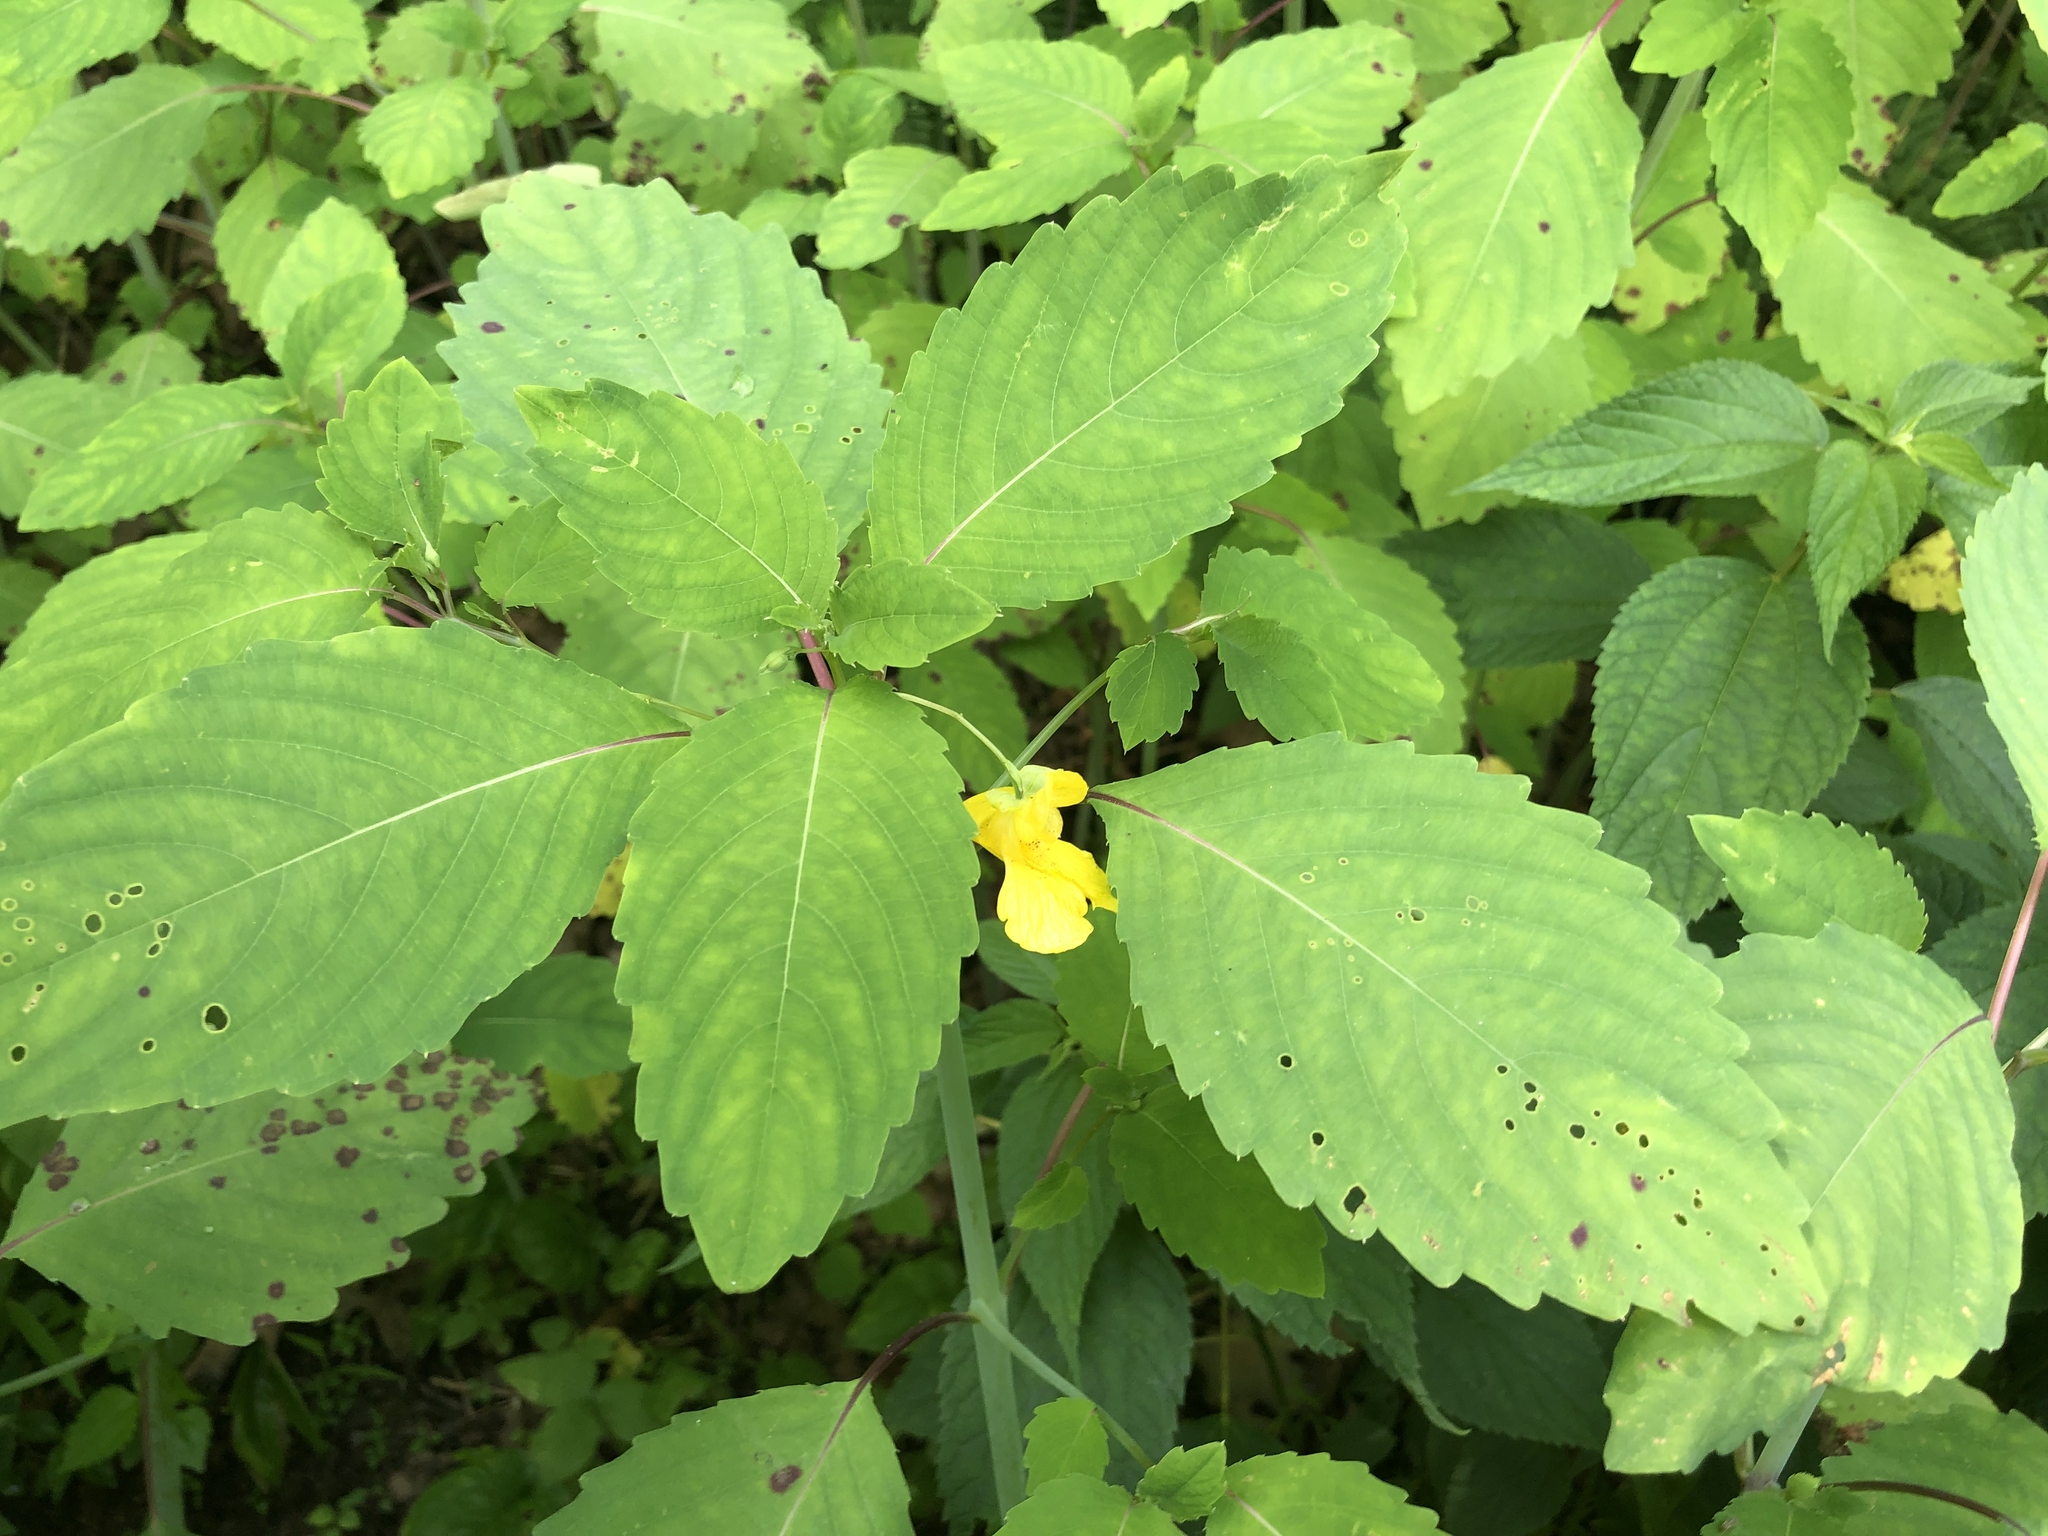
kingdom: Plantae
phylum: Tracheophyta
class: Magnoliopsida
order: Ericales
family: Balsaminaceae
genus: Impatiens
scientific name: Impatiens pallida
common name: Pale snapweed
